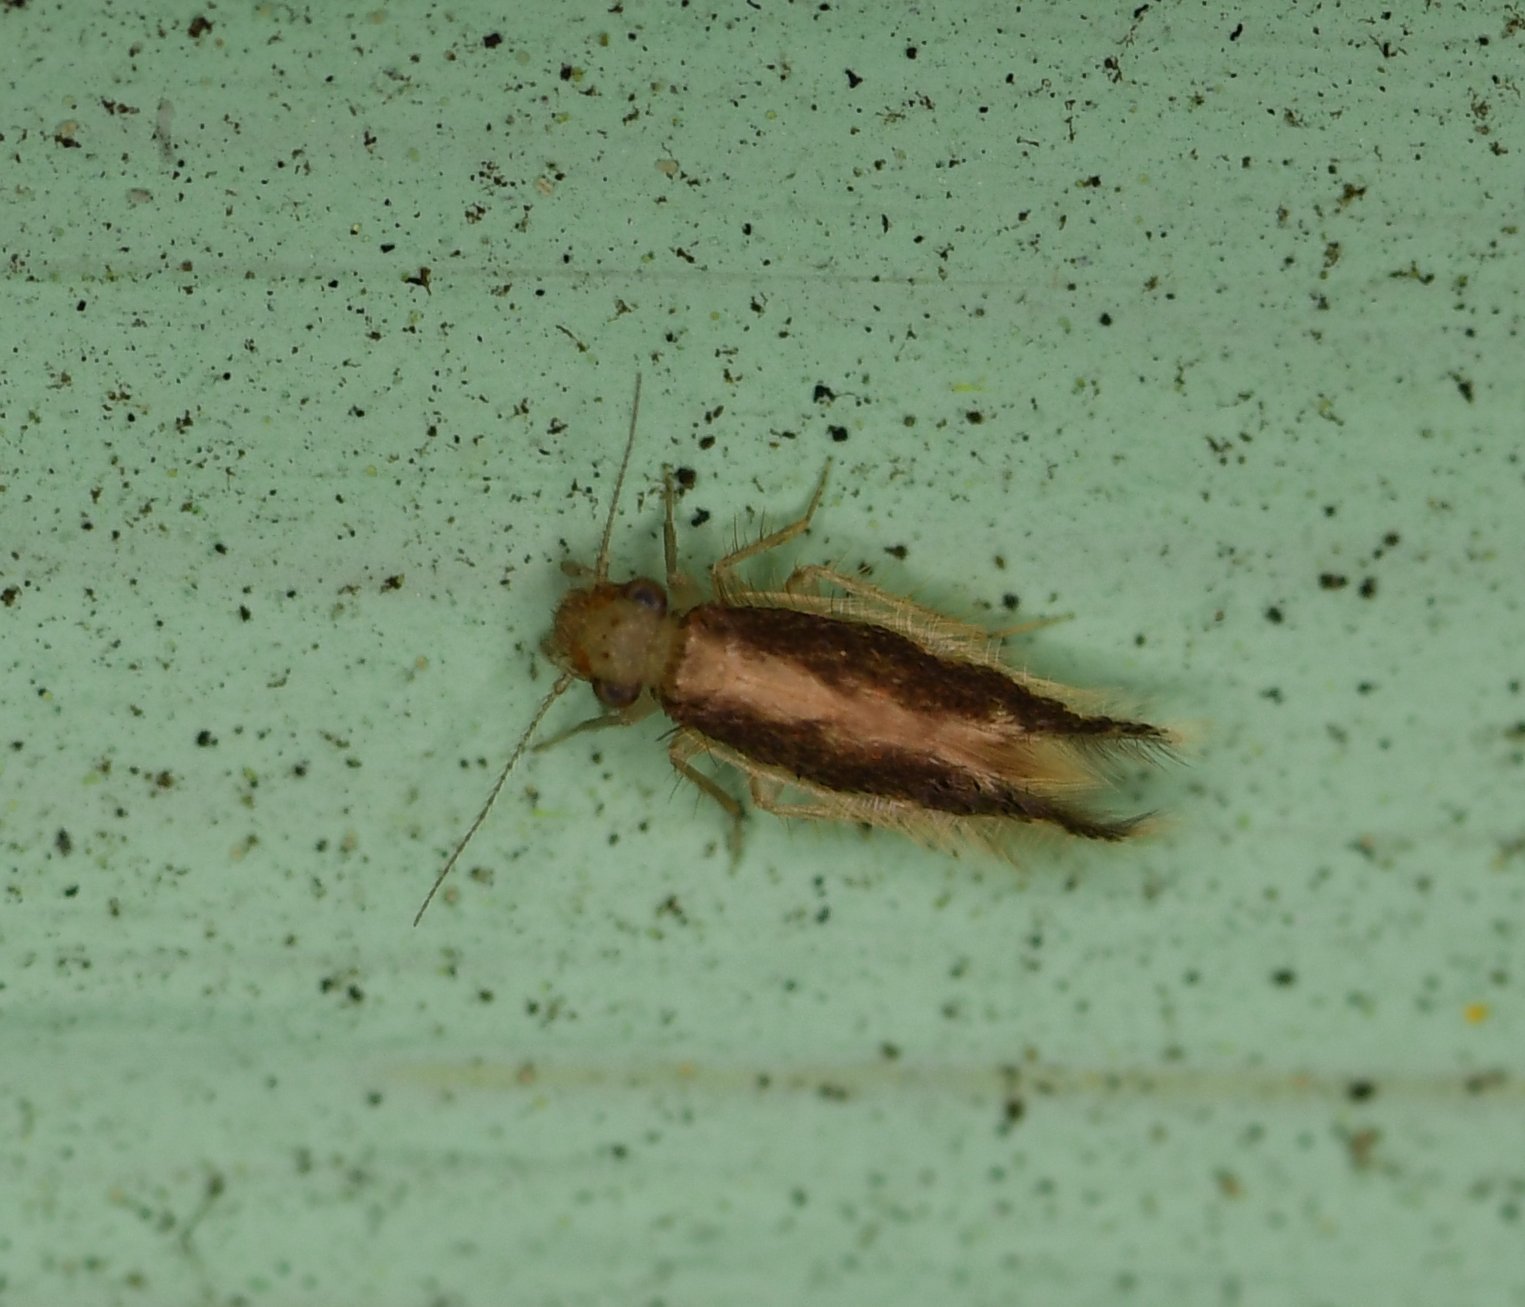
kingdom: Animalia
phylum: Arthropoda
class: Insecta
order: Psocodea
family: Lepidopsocidae
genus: Echmepteryx
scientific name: Echmepteryx madagascariensis
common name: Bark lice
